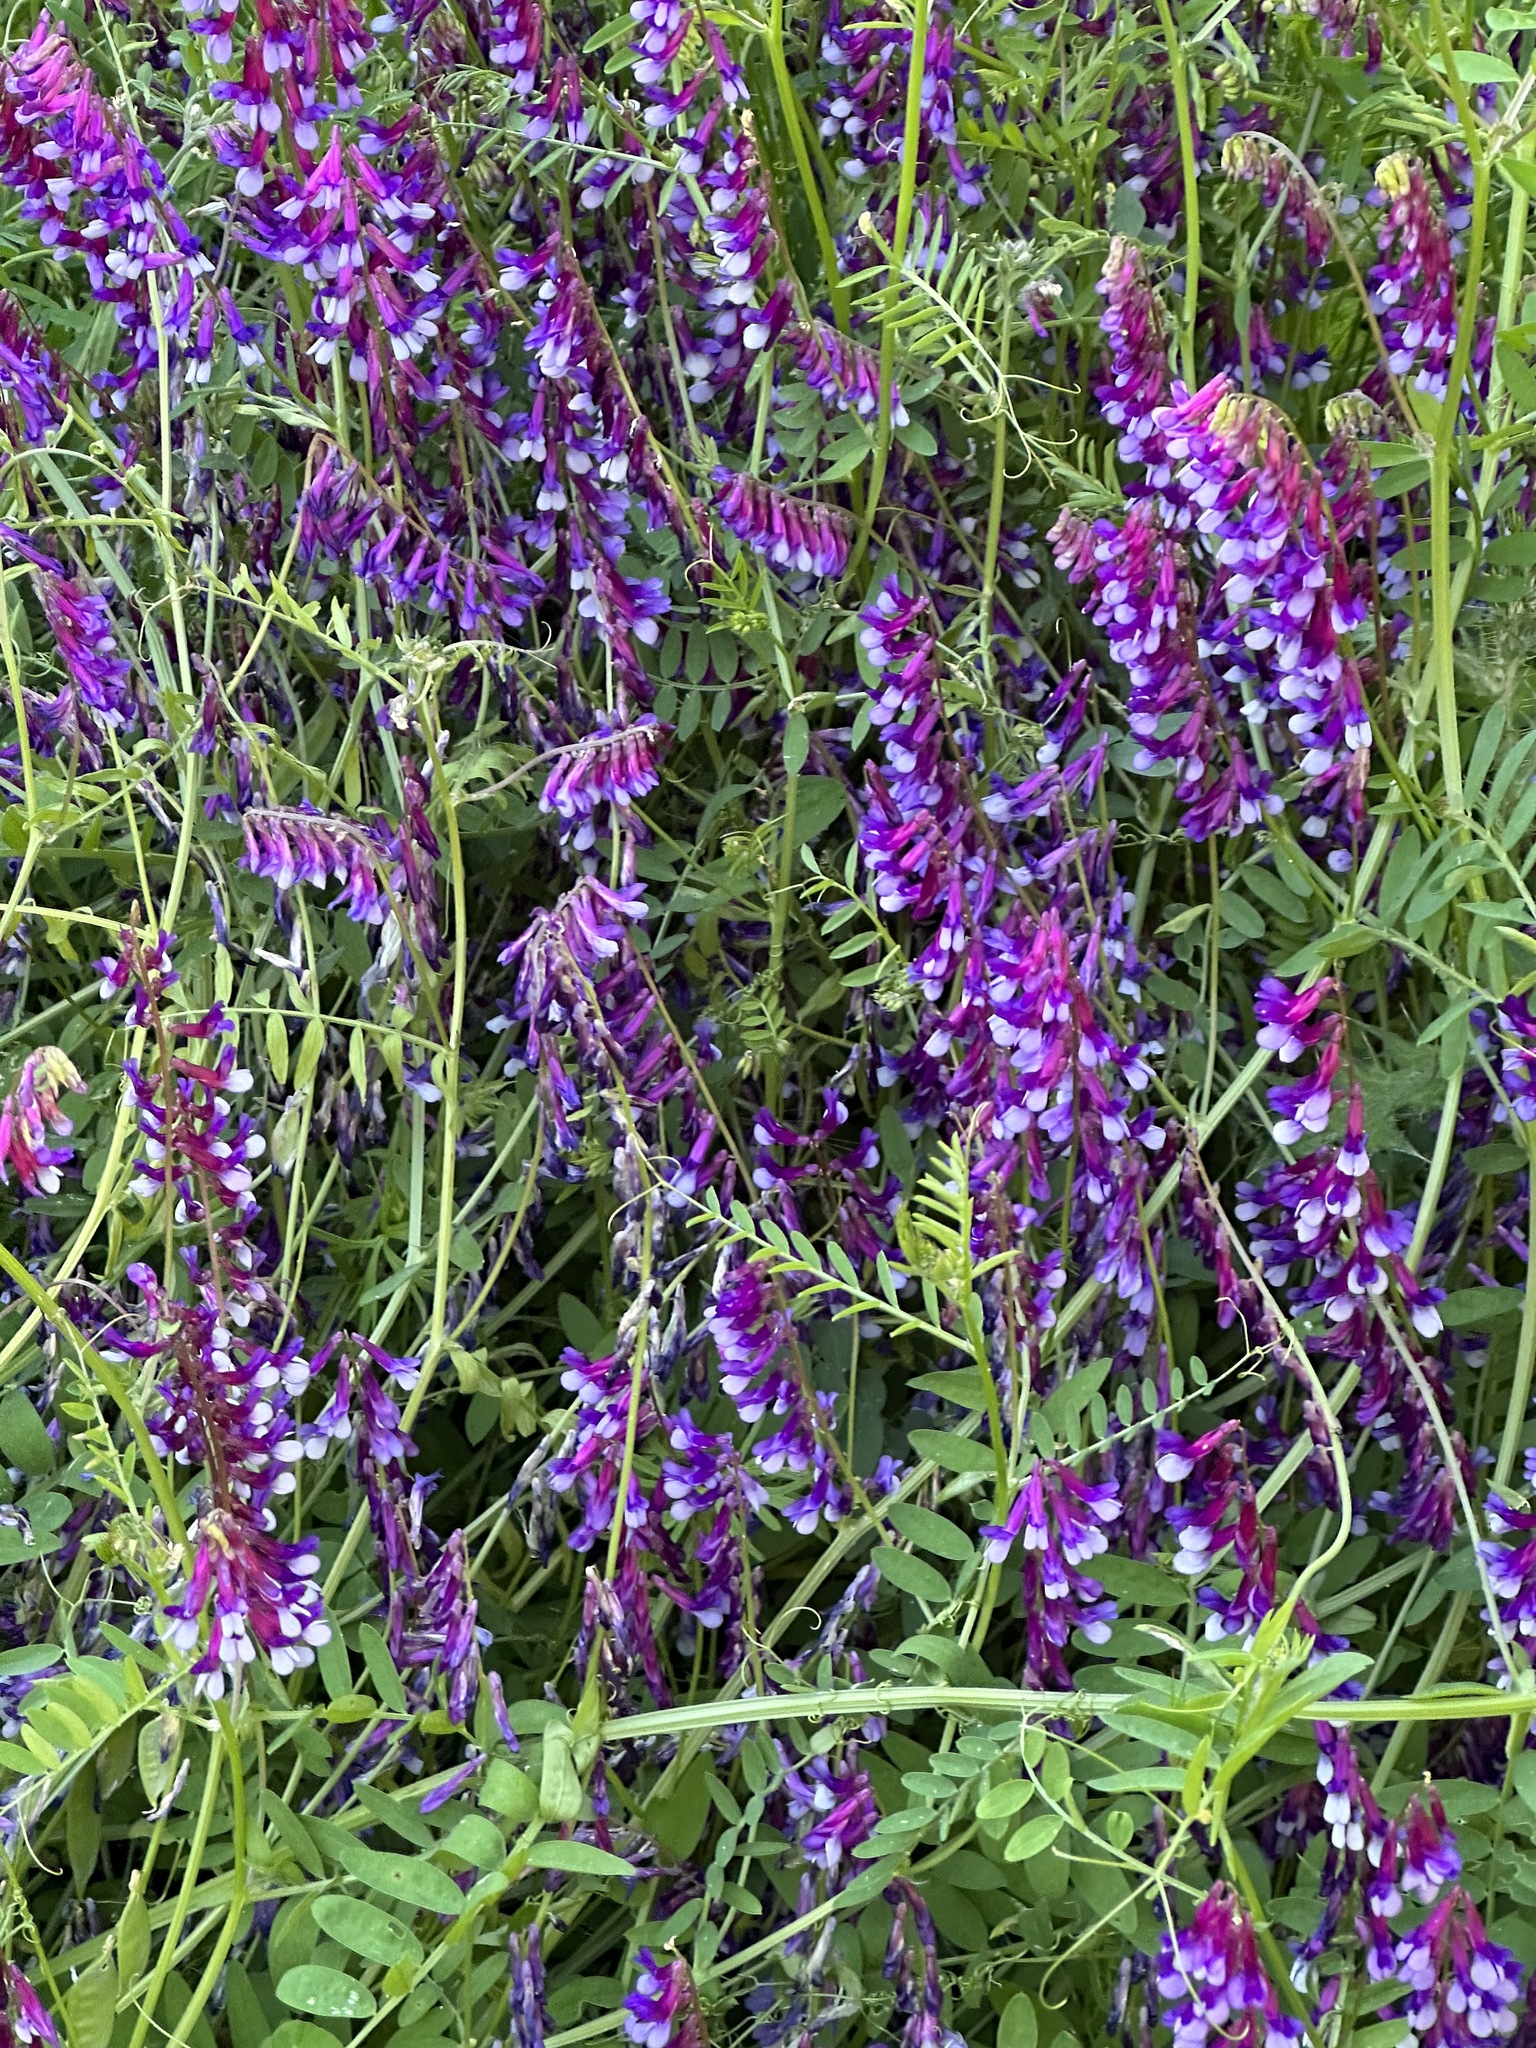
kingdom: Plantae
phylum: Tracheophyta
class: Magnoliopsida
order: Fabales
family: Fabaceae
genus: Vicia
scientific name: Vicia villosa
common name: Fodder vetch
